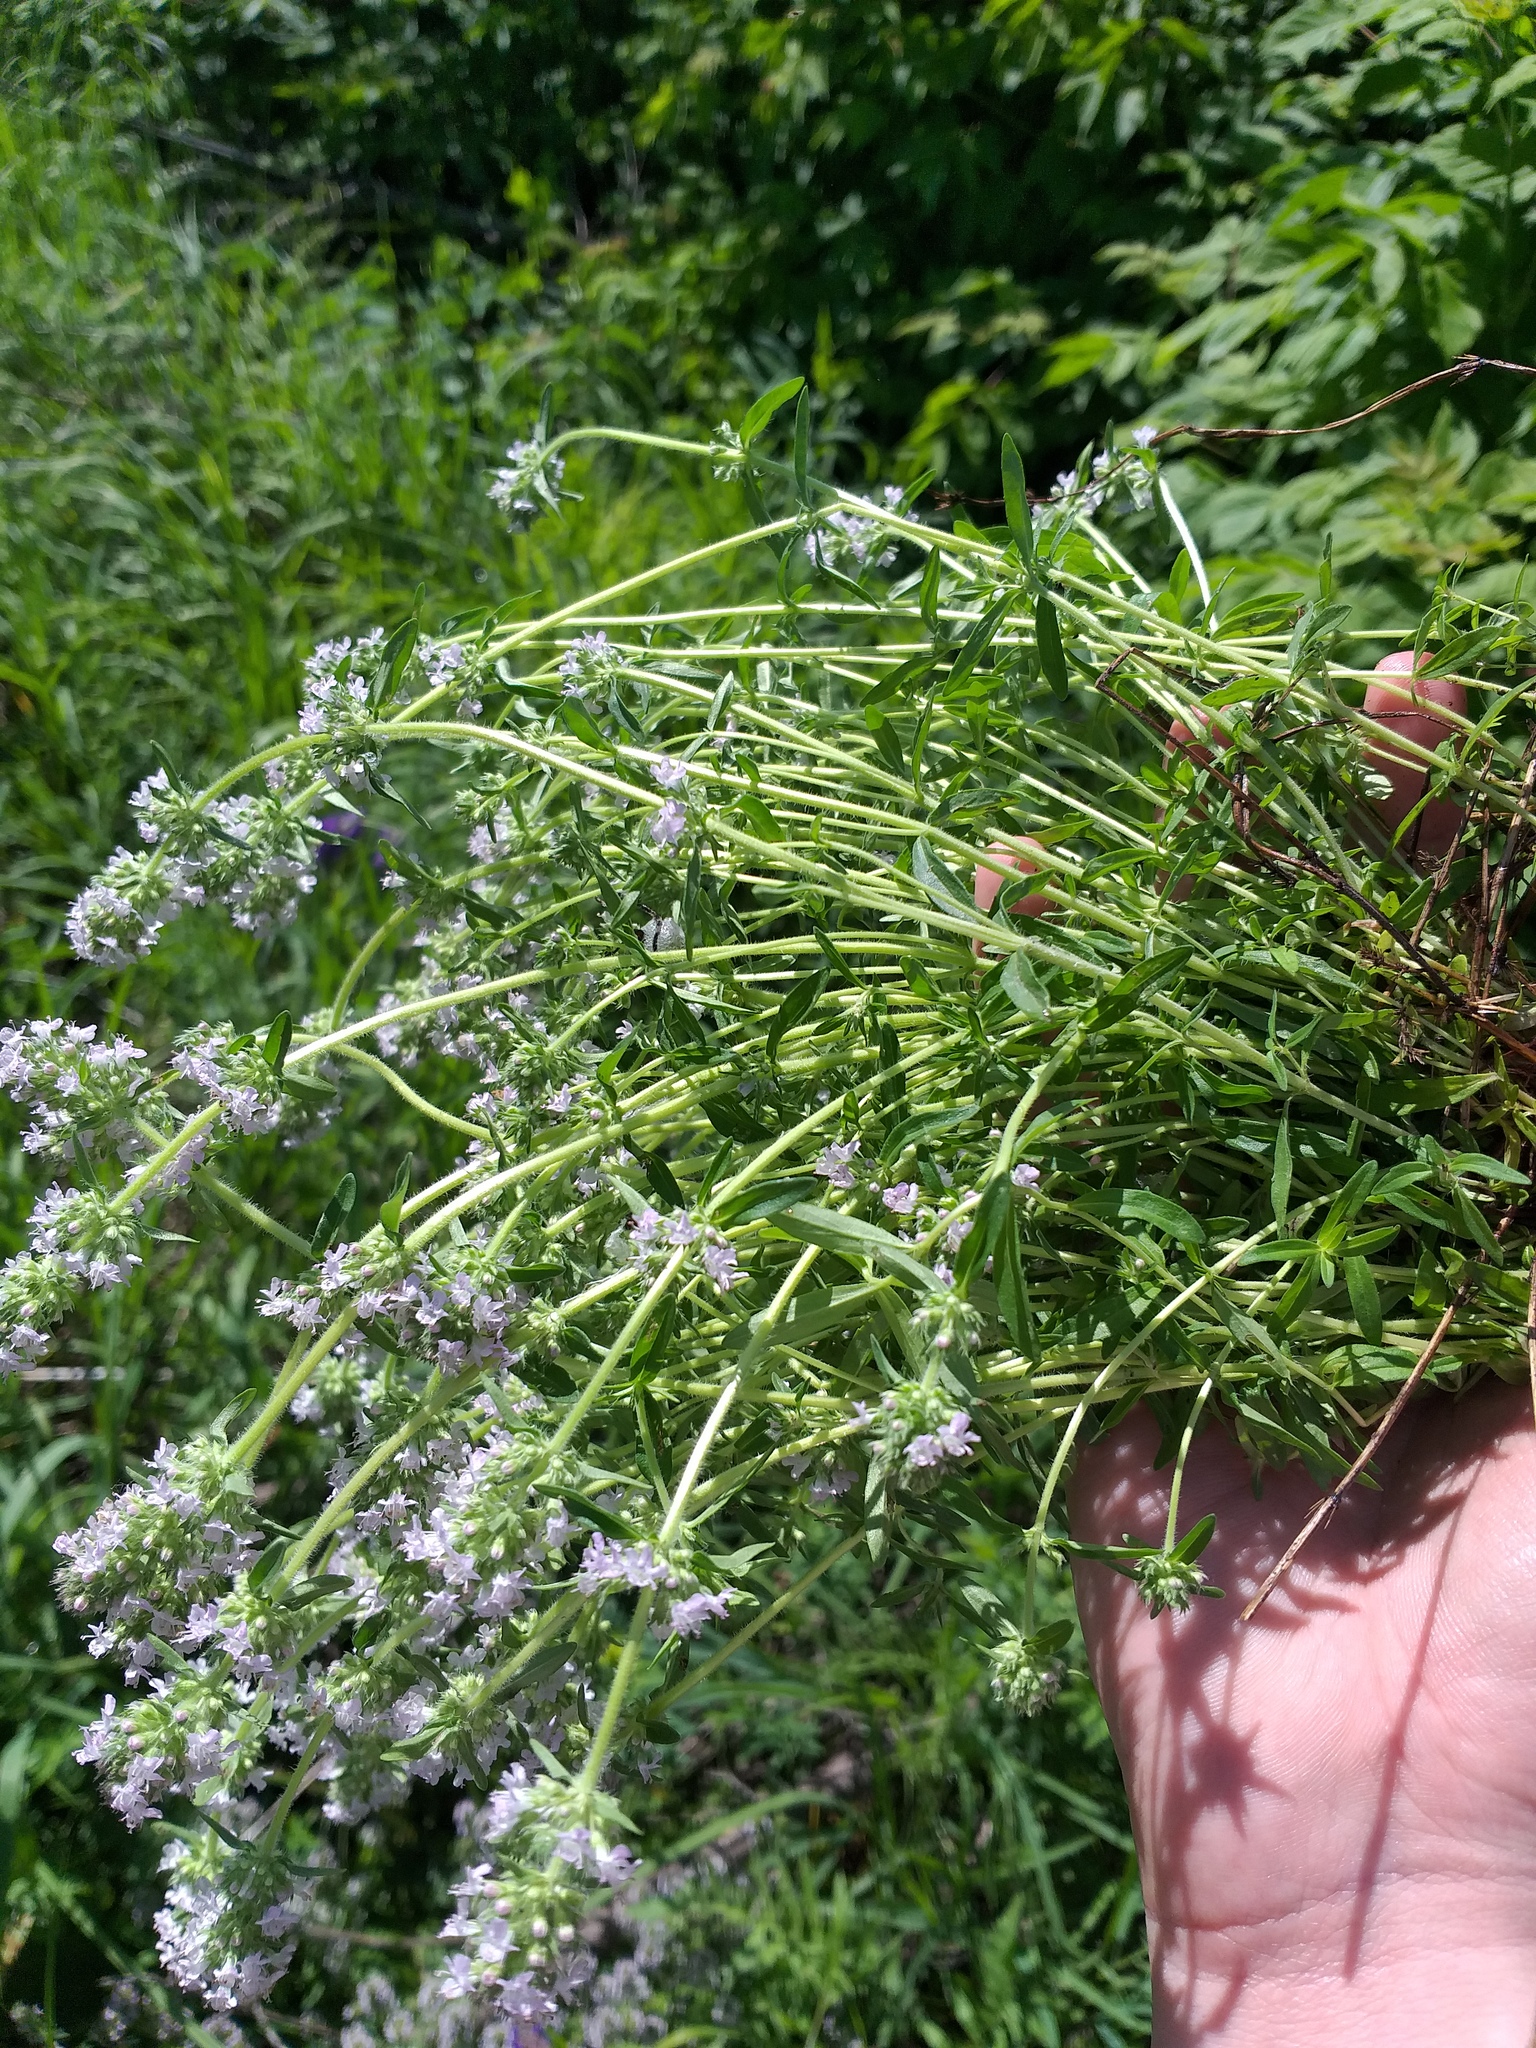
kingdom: Plantae
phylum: Tracheophyta
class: Magnoliopsida
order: Lamiales
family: Lamiaceae
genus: Thymus
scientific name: Thymus pannonicus
